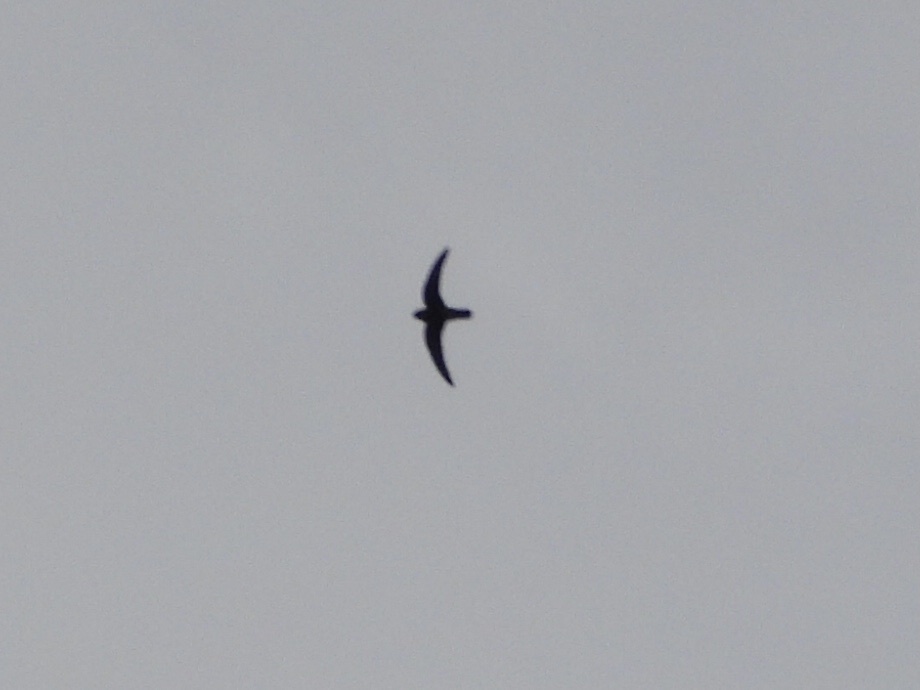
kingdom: Animalia
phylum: Chordata
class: Aves
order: Apodiformes
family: Apodidae
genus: Cypseloides
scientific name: Cypseloides niger
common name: Black swift
